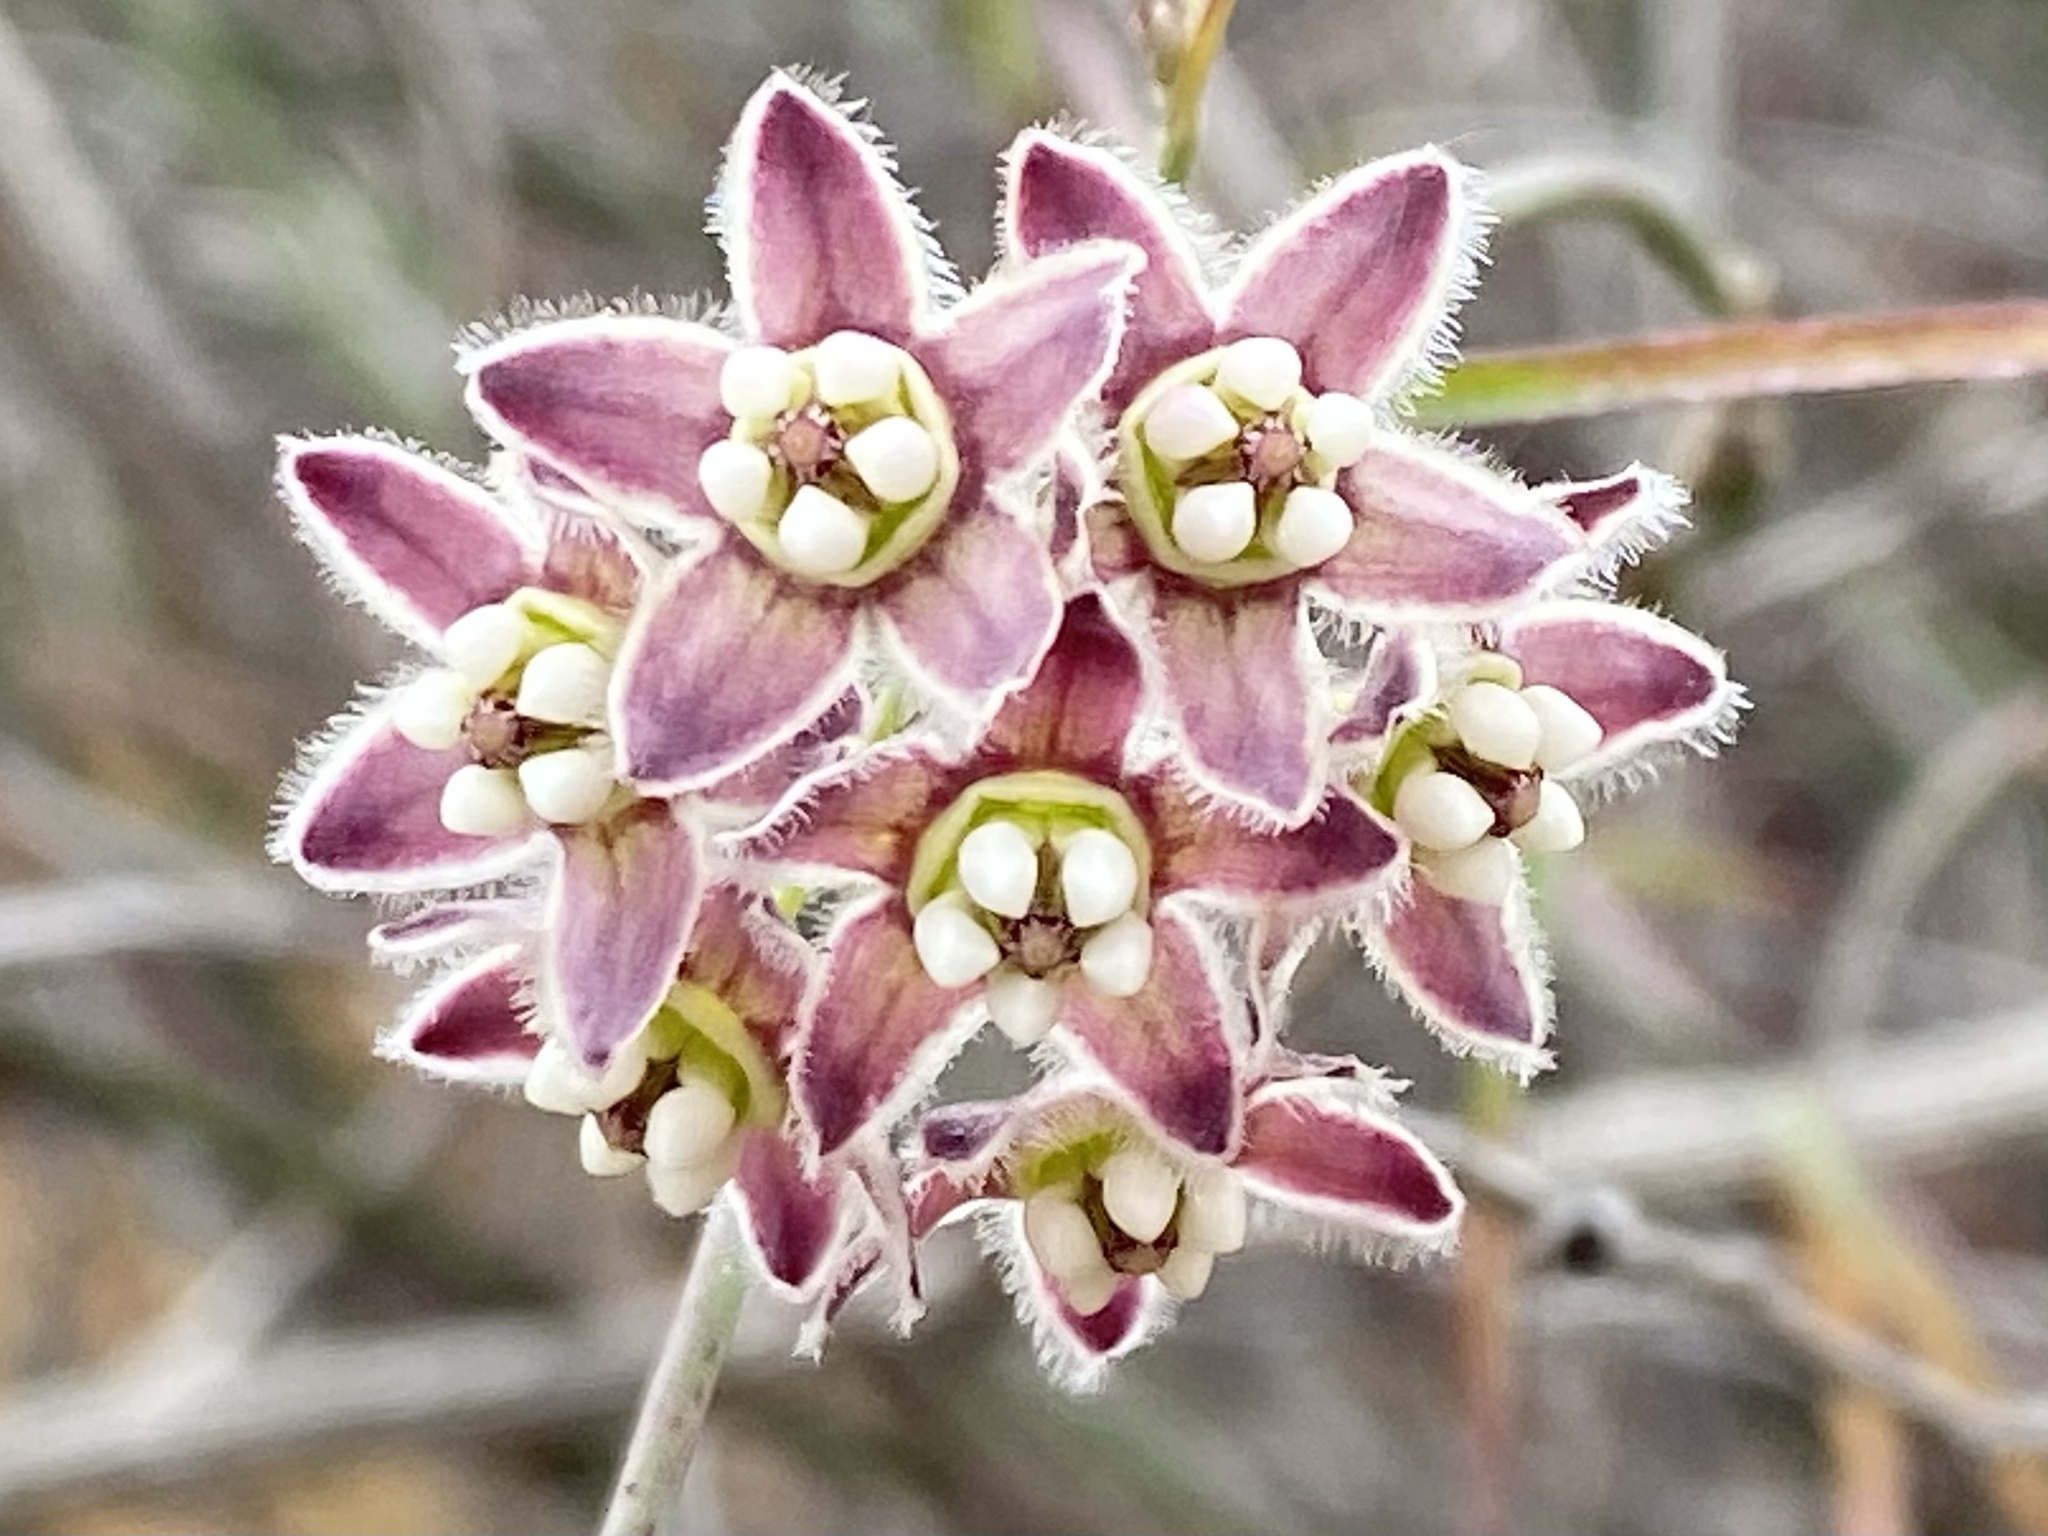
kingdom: Plantae
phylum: Tracheophyta
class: Magnoliopsida
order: Gentianales
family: Apocynaceae
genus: Funastrum
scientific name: Funastrum heterophyllum
